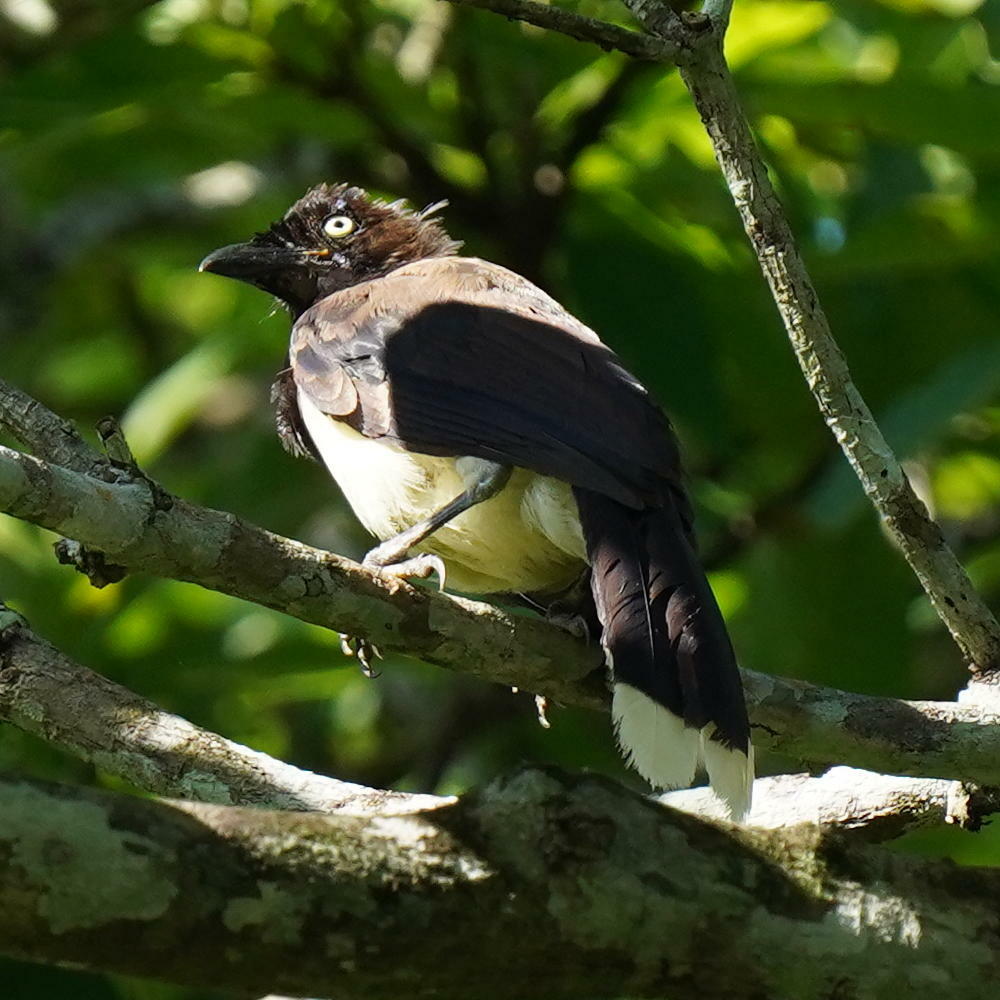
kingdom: Animalia
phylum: Chordata
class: Aves
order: Passeriformes
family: Corvidae
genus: Cyanocorax
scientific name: Cyanocorax affinis
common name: Black-chested jay
